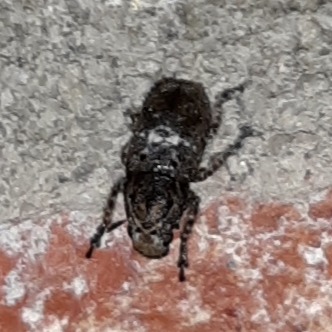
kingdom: Animalia
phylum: Arthropoda
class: Insecta
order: Coleoptera
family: Anthribidae
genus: Toxonotus
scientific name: Toxonotus cornutus
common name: Fungus weevil
